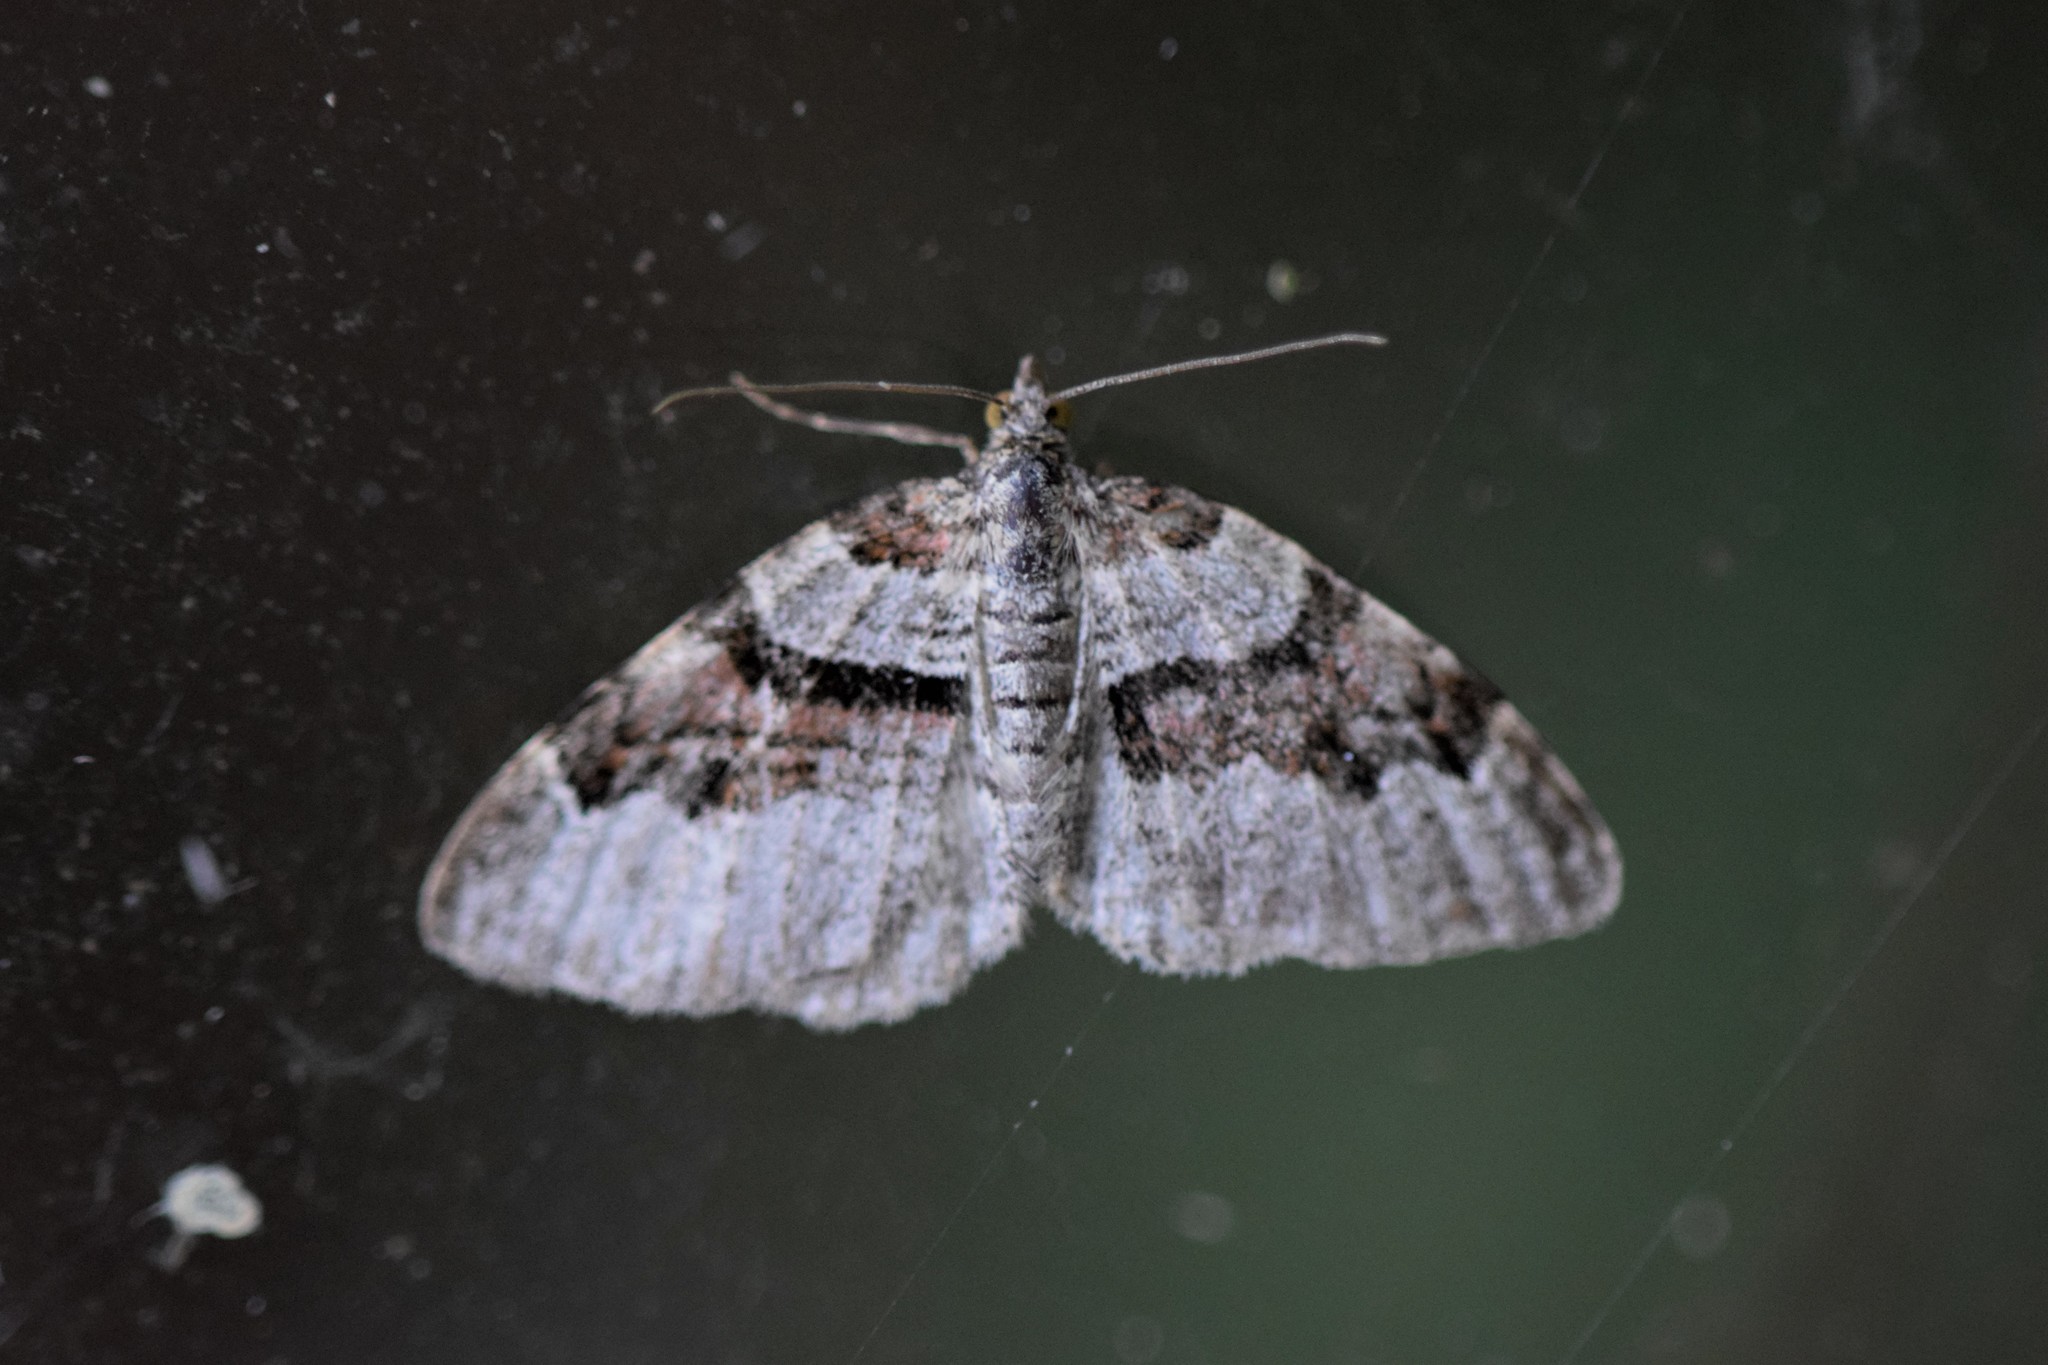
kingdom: Animalia
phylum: Arthropoda
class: Insecta
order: Lepidoptera
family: Geometridae
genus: Xanthorhoe
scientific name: Xanthorhoe designata
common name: Flame carpet
